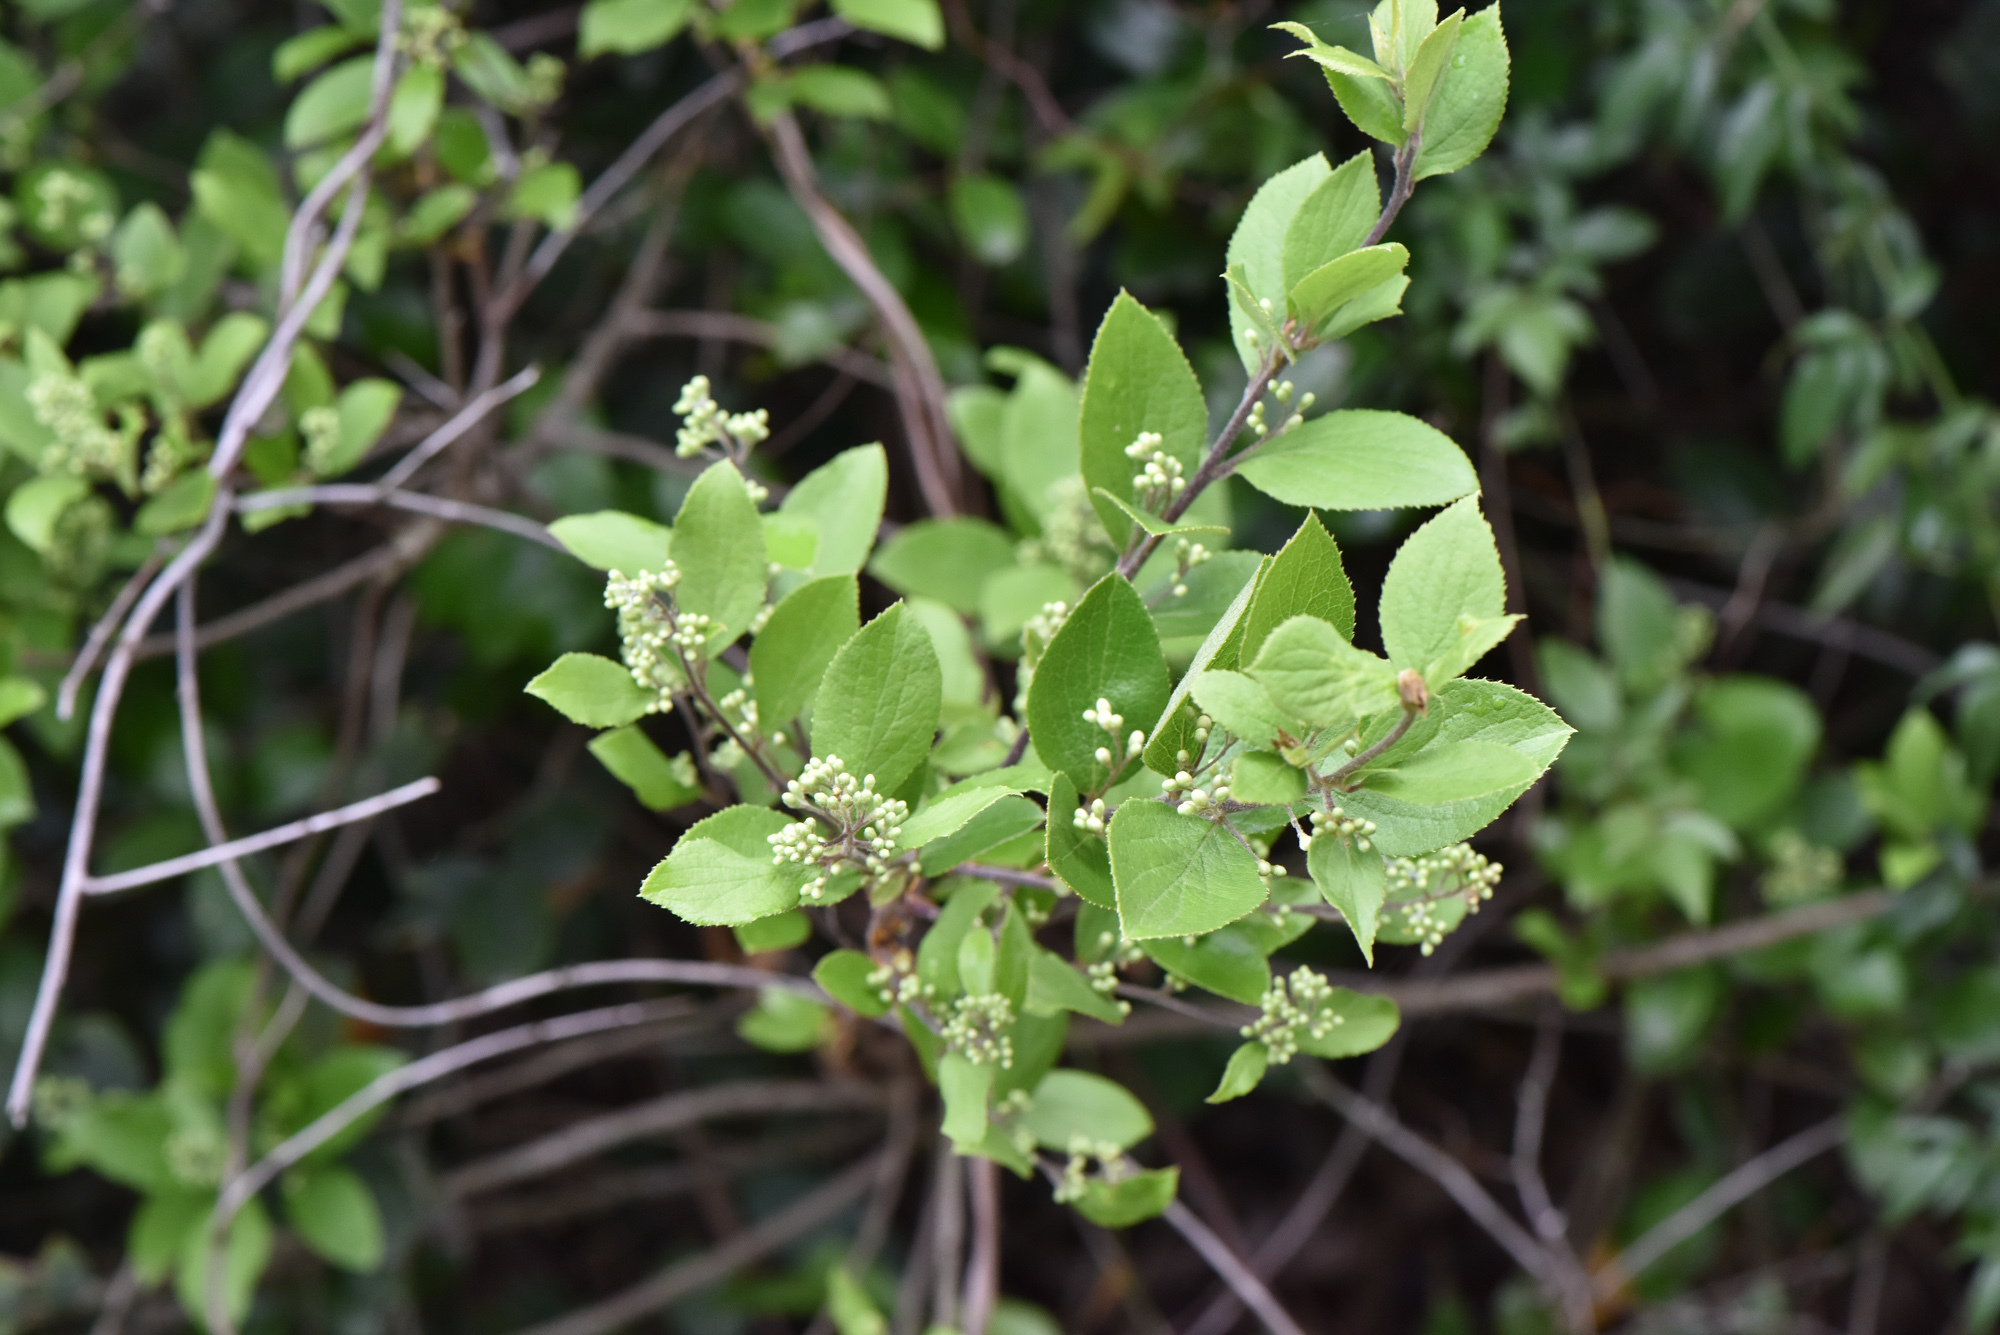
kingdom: Plantae
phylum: Tracheophyta
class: Magnoliopsida
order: Ericales
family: Symplocaceae
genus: Symplocos
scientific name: Symplocos paniculata
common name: Sapphire-berry
